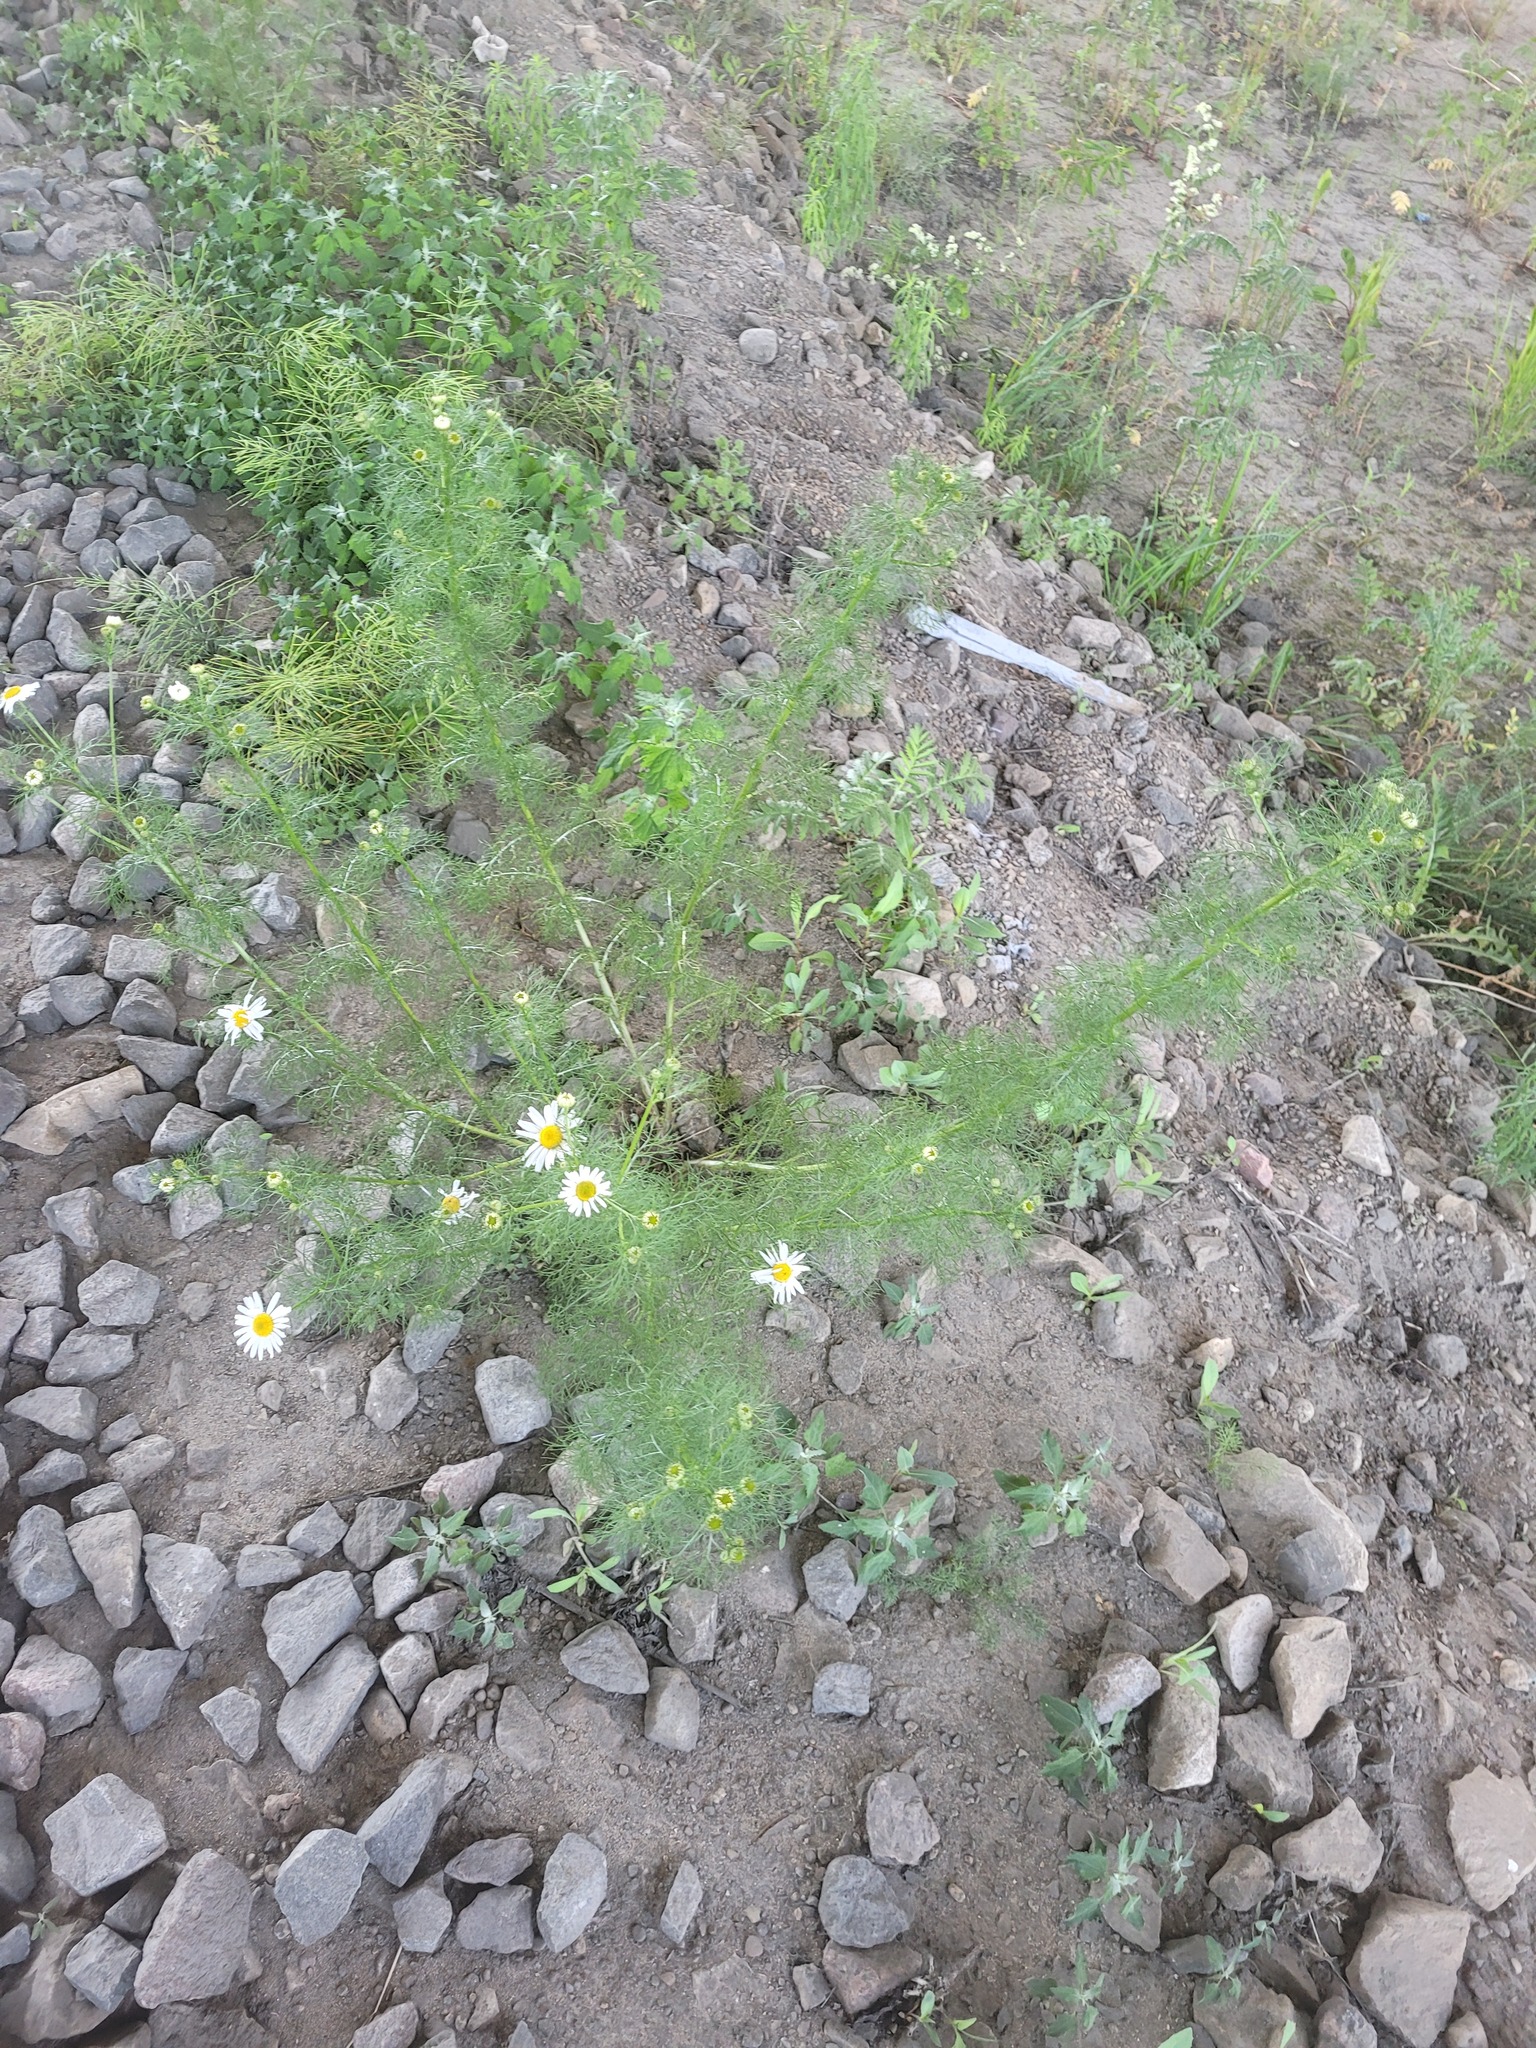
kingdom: Plantae
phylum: Tracheophyta
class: Magnoliopsida
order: Asterales
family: Asteraceae
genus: Tripleurospermum
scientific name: Tripleurospermum inodorum
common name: Scentless mayweed
